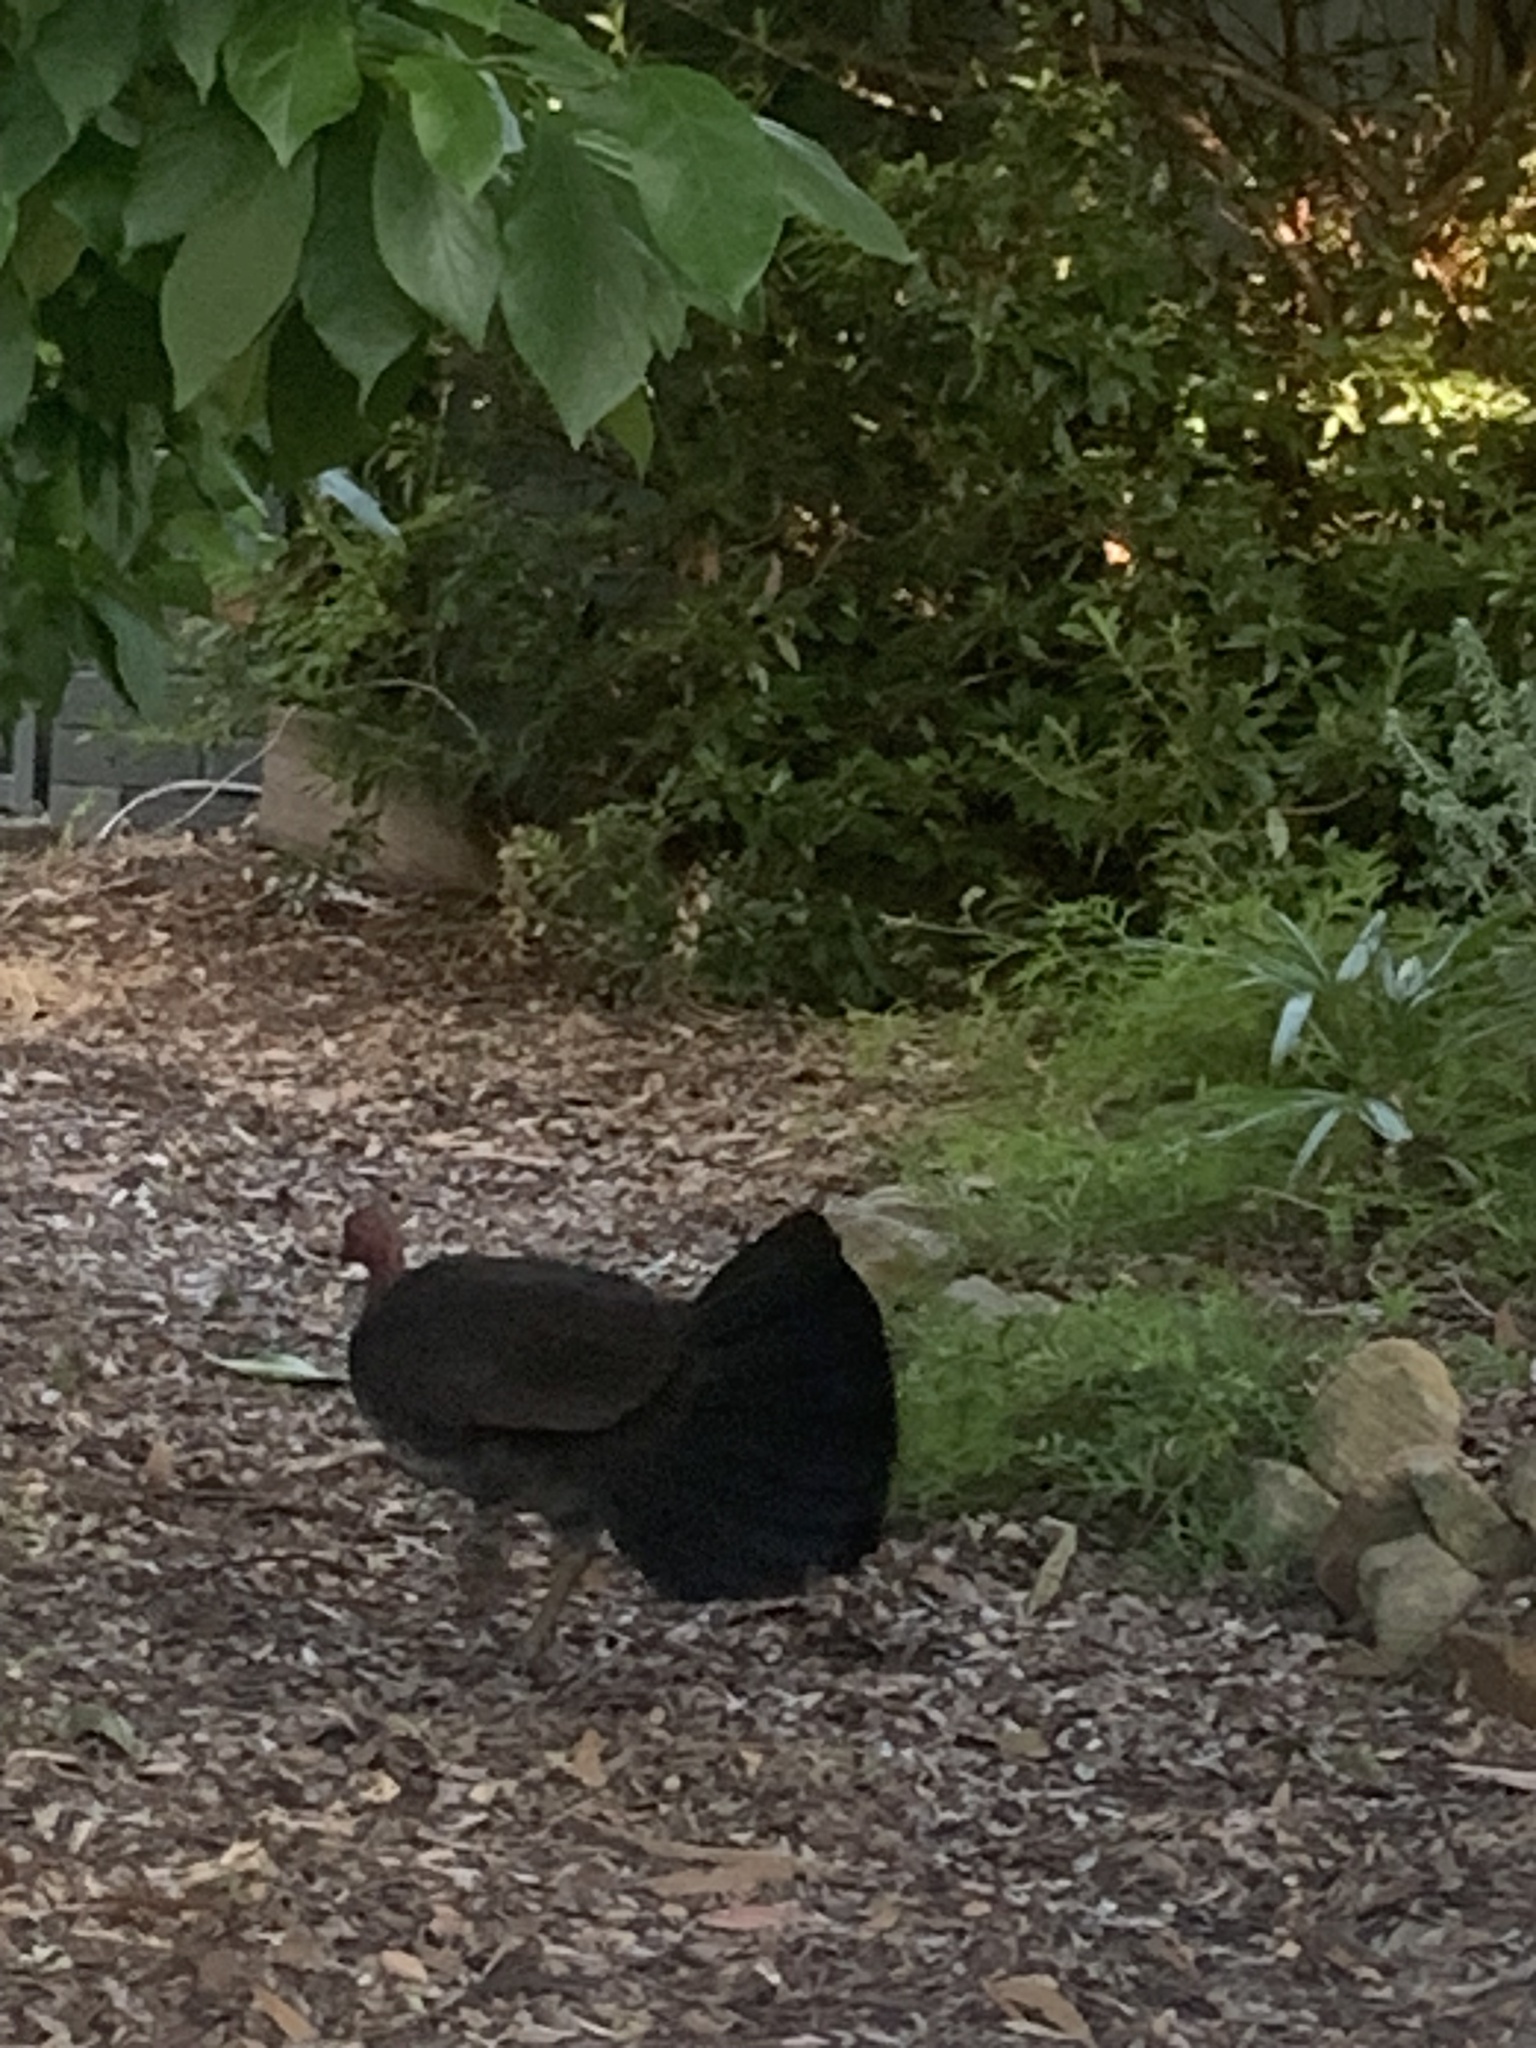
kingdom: Animalia
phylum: Chordata
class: Aves
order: Galliformes
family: Megapodiidae
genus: Alectura
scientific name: Alectura lathami
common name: Australian brushturkey
